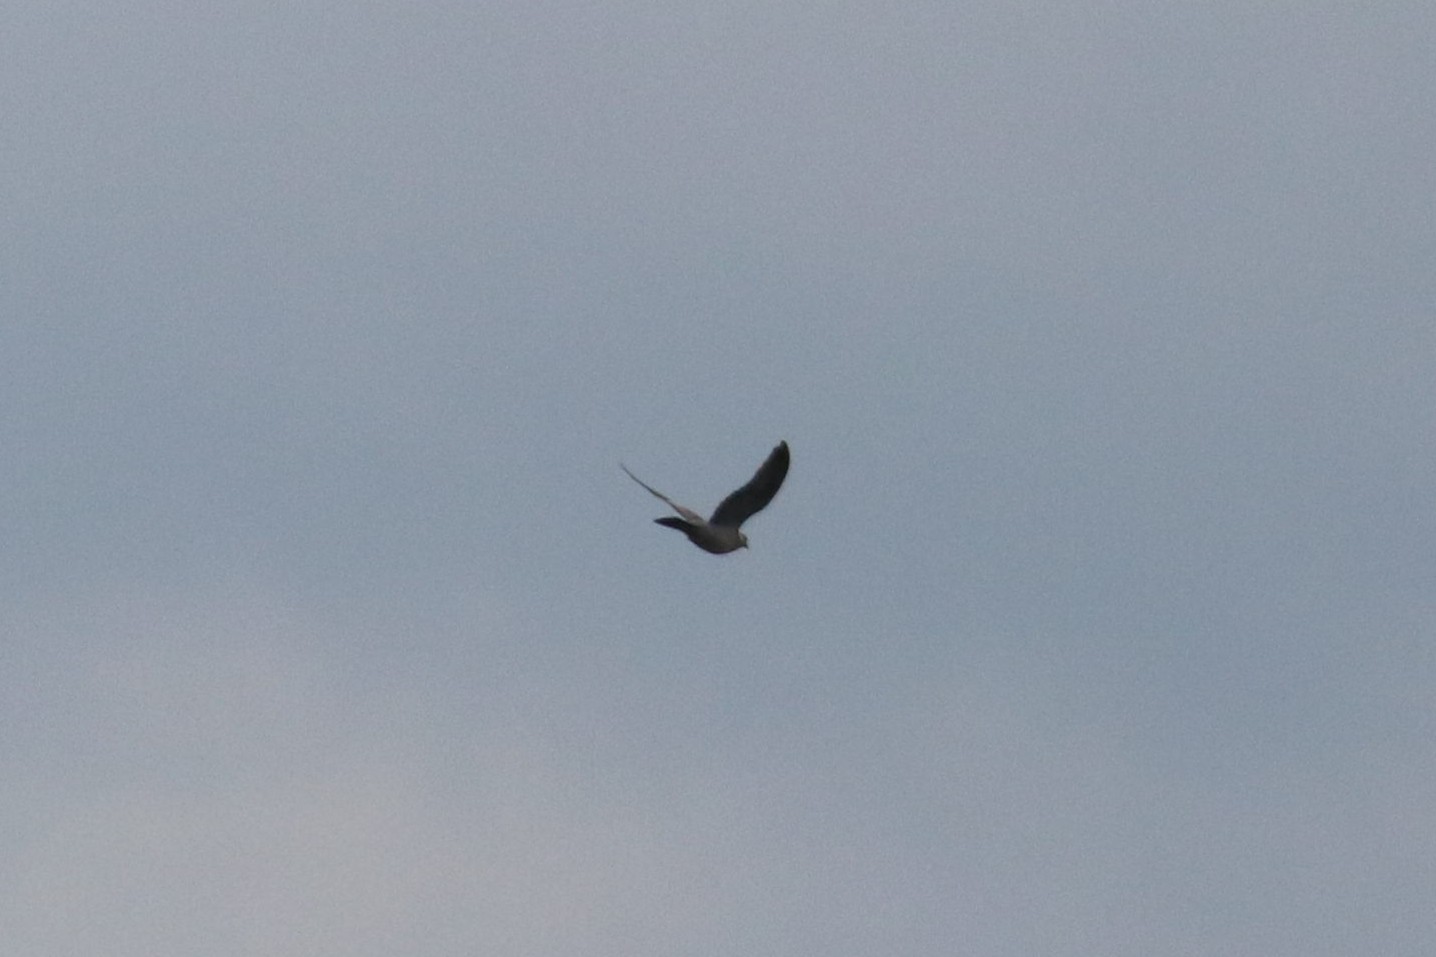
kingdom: Animalia
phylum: Chordata
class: Aves
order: Columbiformes
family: Columbidae
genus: Columba
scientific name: Columba palumbus
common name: Common wood pigeon
